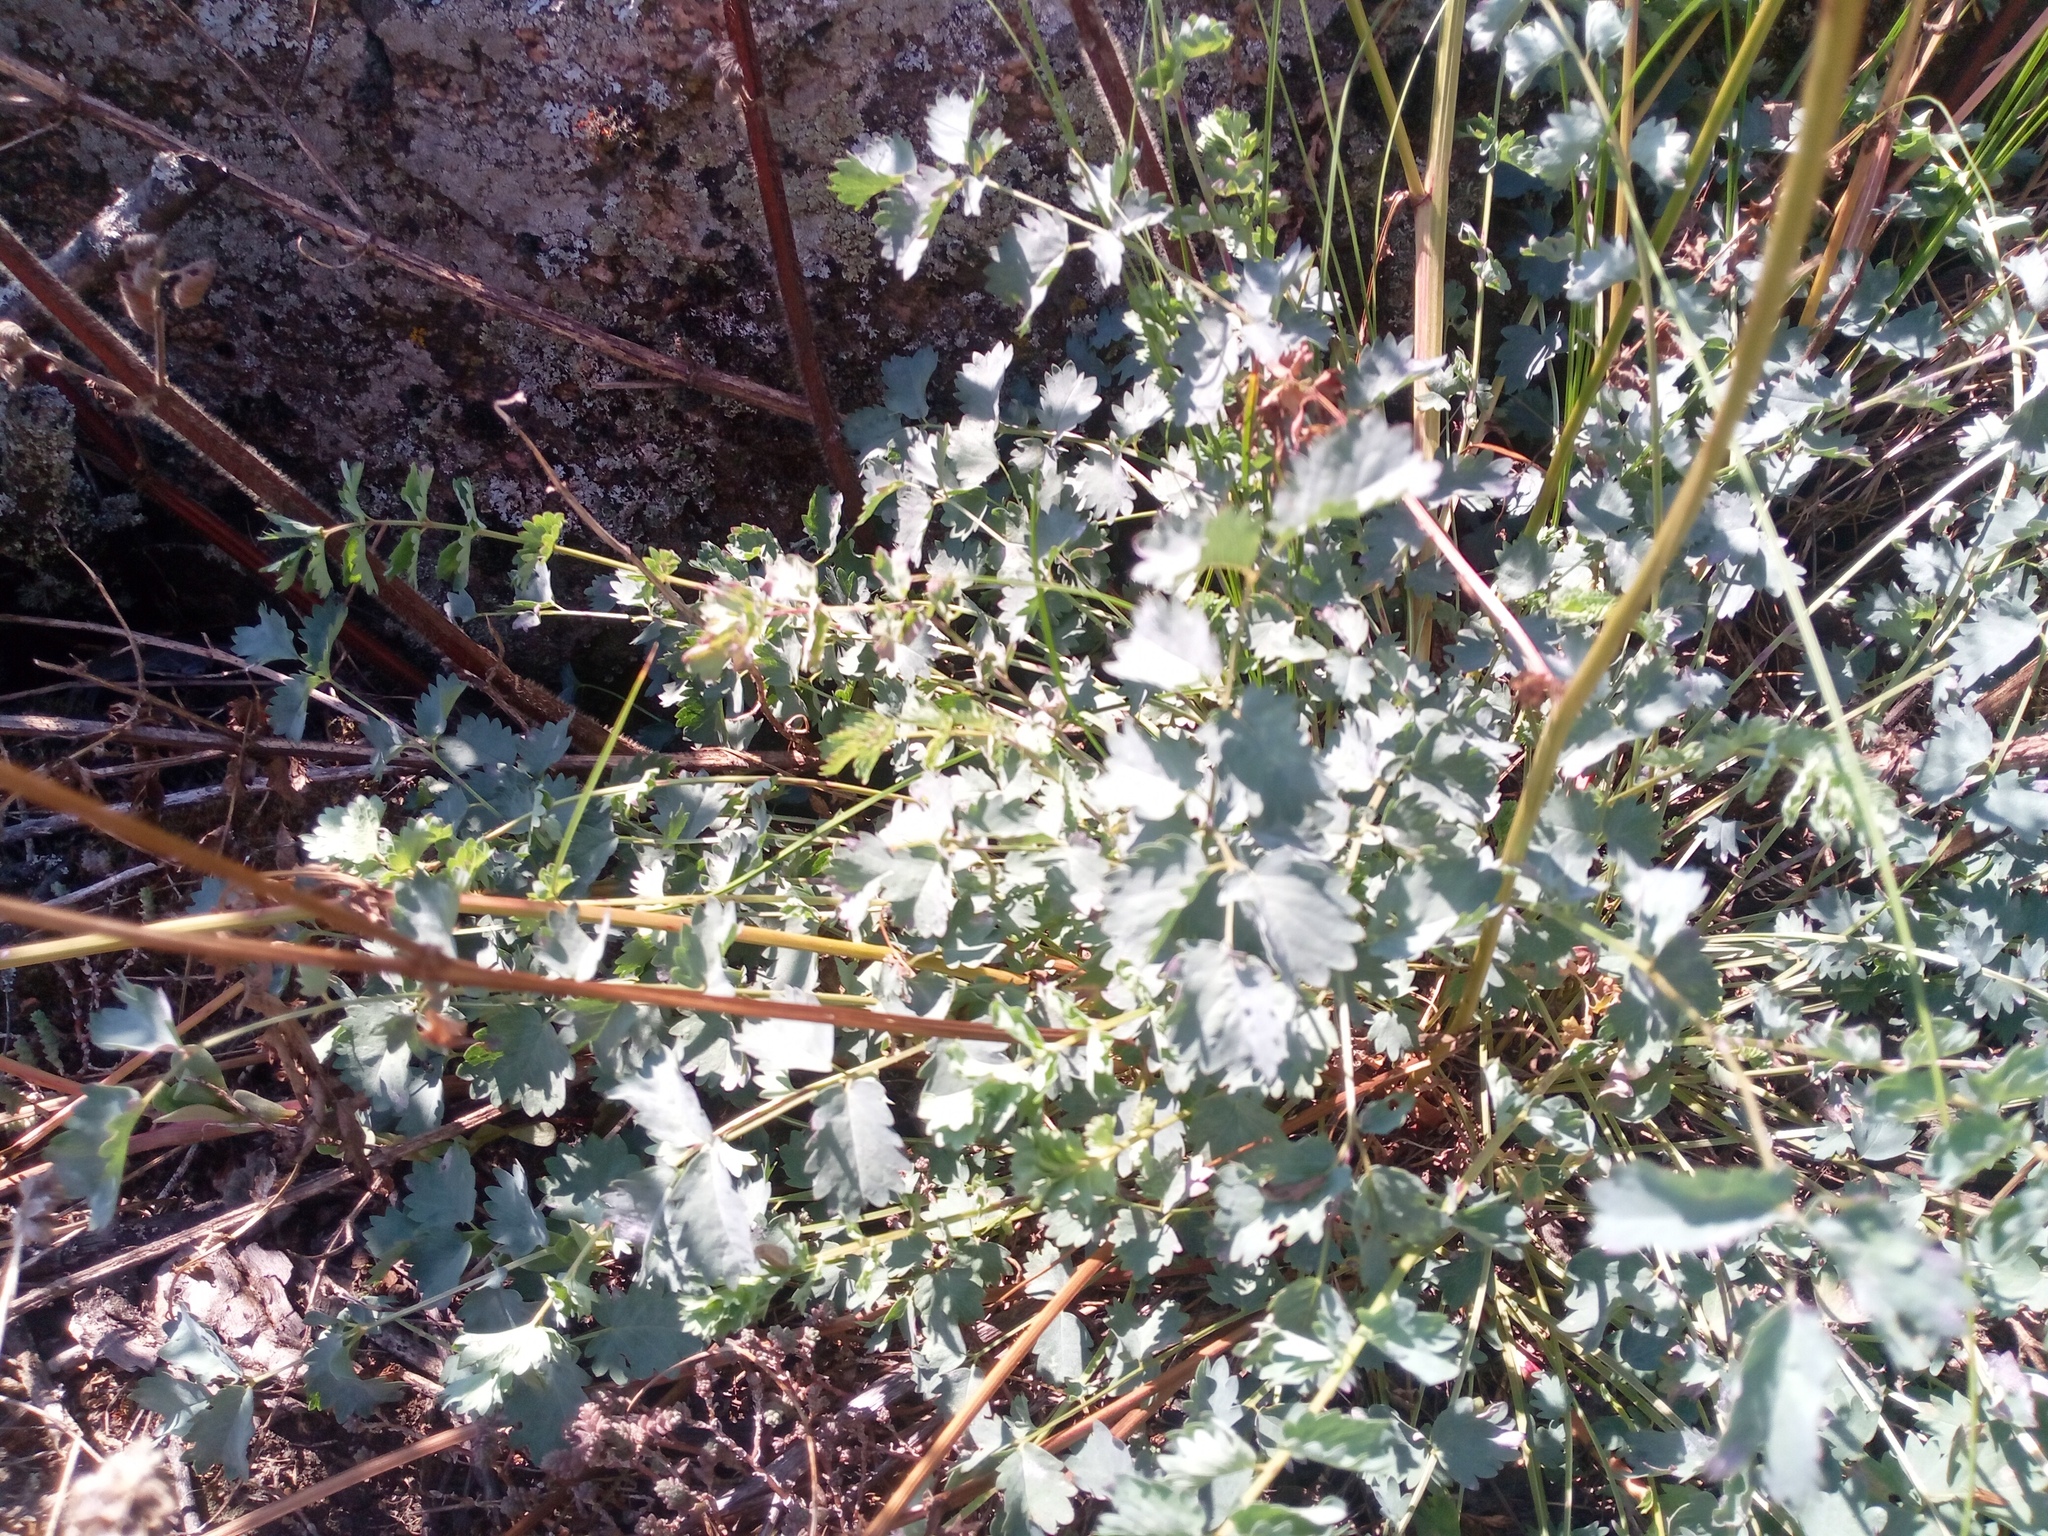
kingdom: Plantae
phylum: Tracheophyta
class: Magnoliopsida
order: Rosales
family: Rosaceae
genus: Poterium
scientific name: Poterium sanguisorba
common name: Salad burnet
